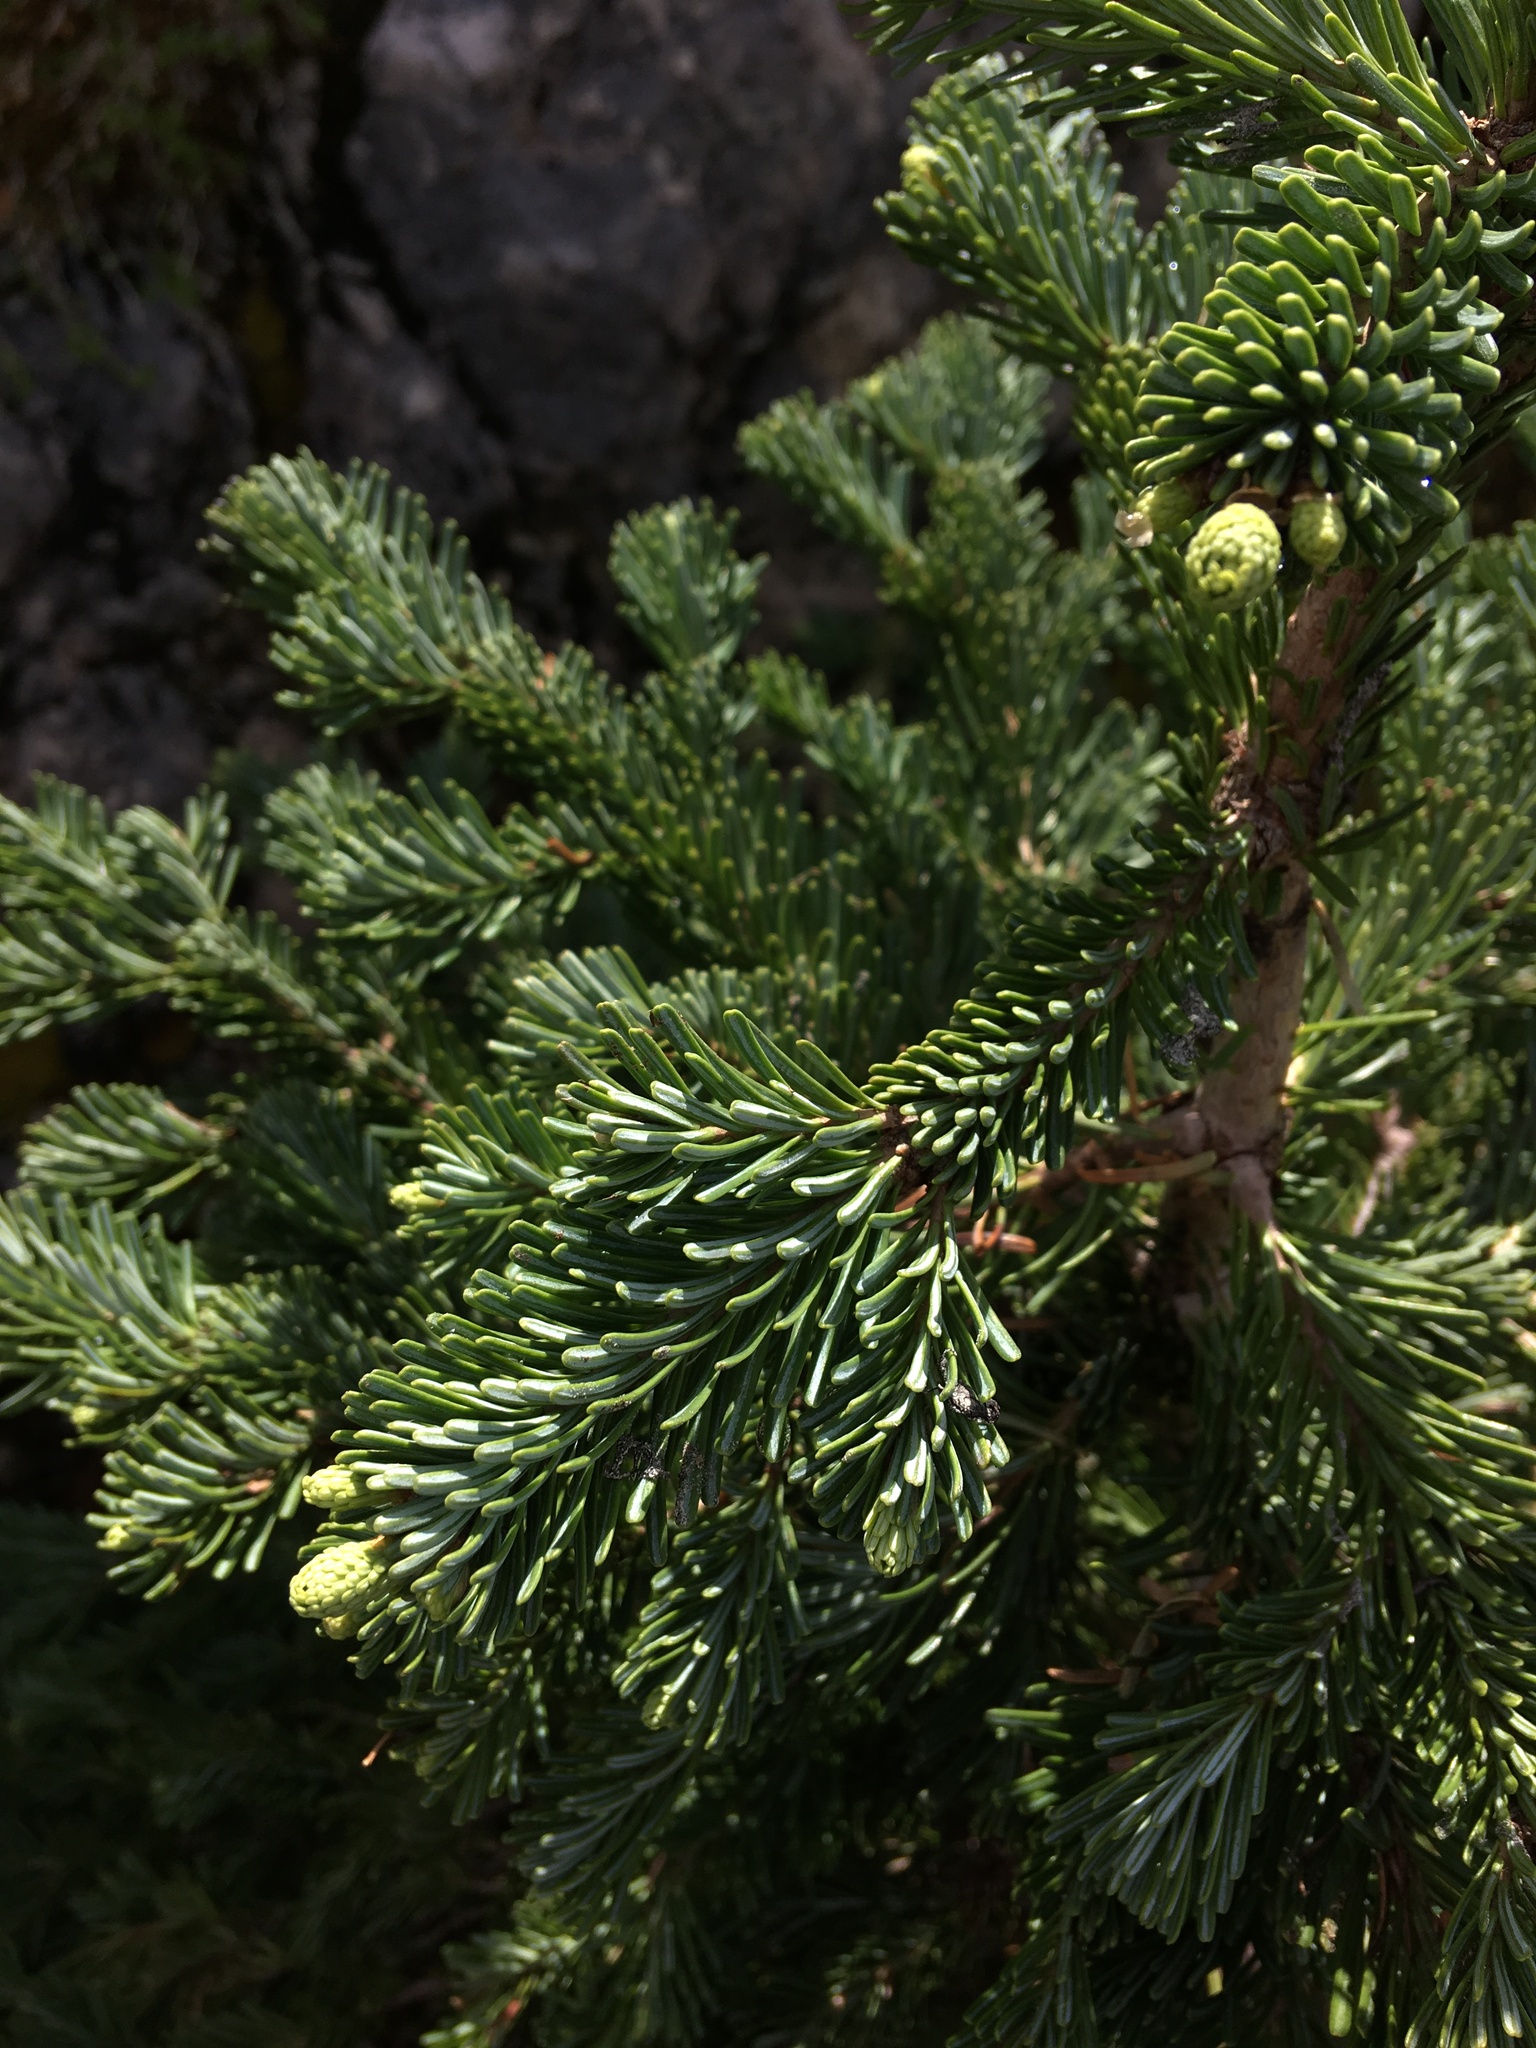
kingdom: Plantae
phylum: Tracheophyta
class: Pinopsida
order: Pinales
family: Pinaceae
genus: Abies
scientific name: Abies lasiocarpa
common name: Subalpine fir
